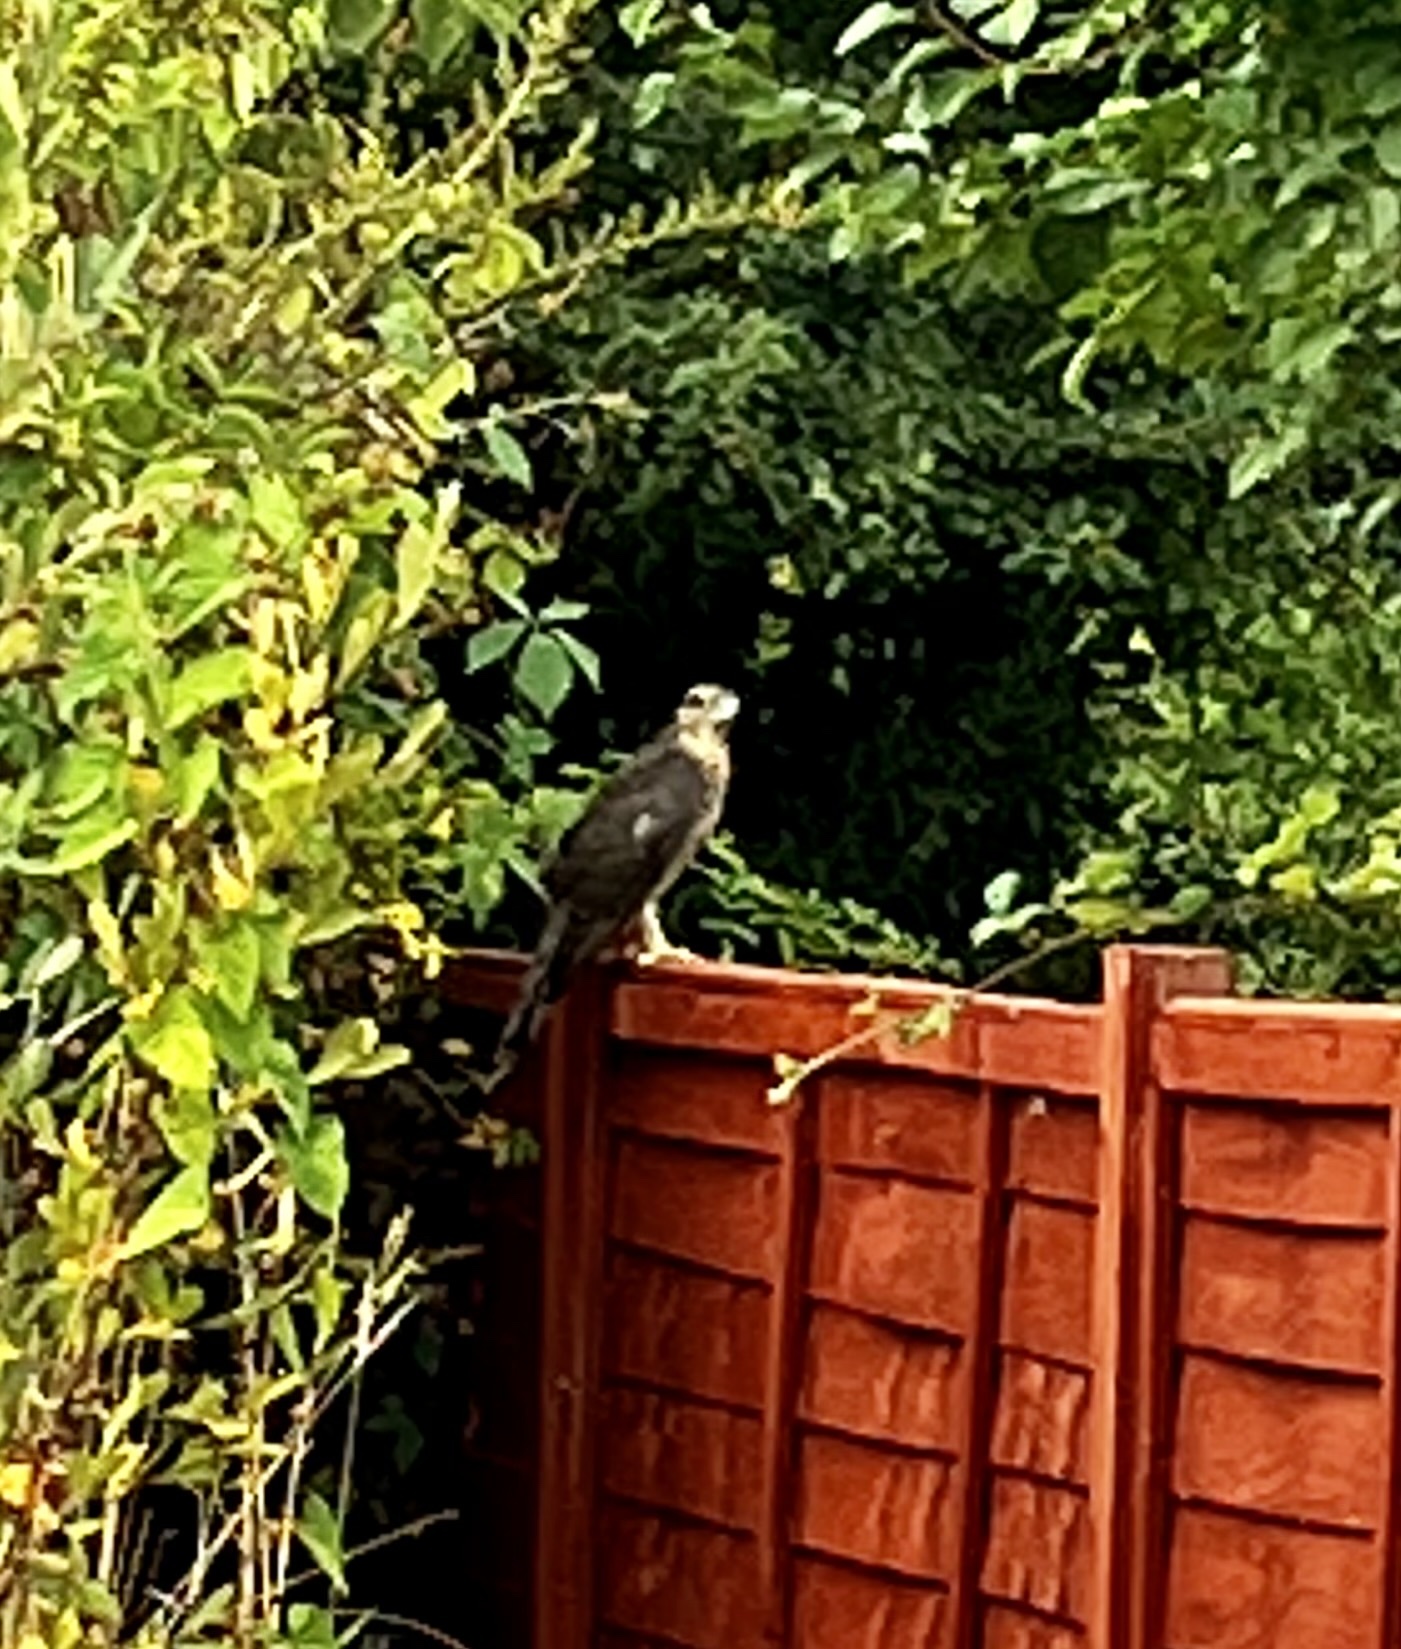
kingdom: Animalia
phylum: Chordata
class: Aves
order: Accipitriformes
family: Accipitridae
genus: Accipiter
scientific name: Accipiter nisus
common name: Eurasian sparrowhawk
